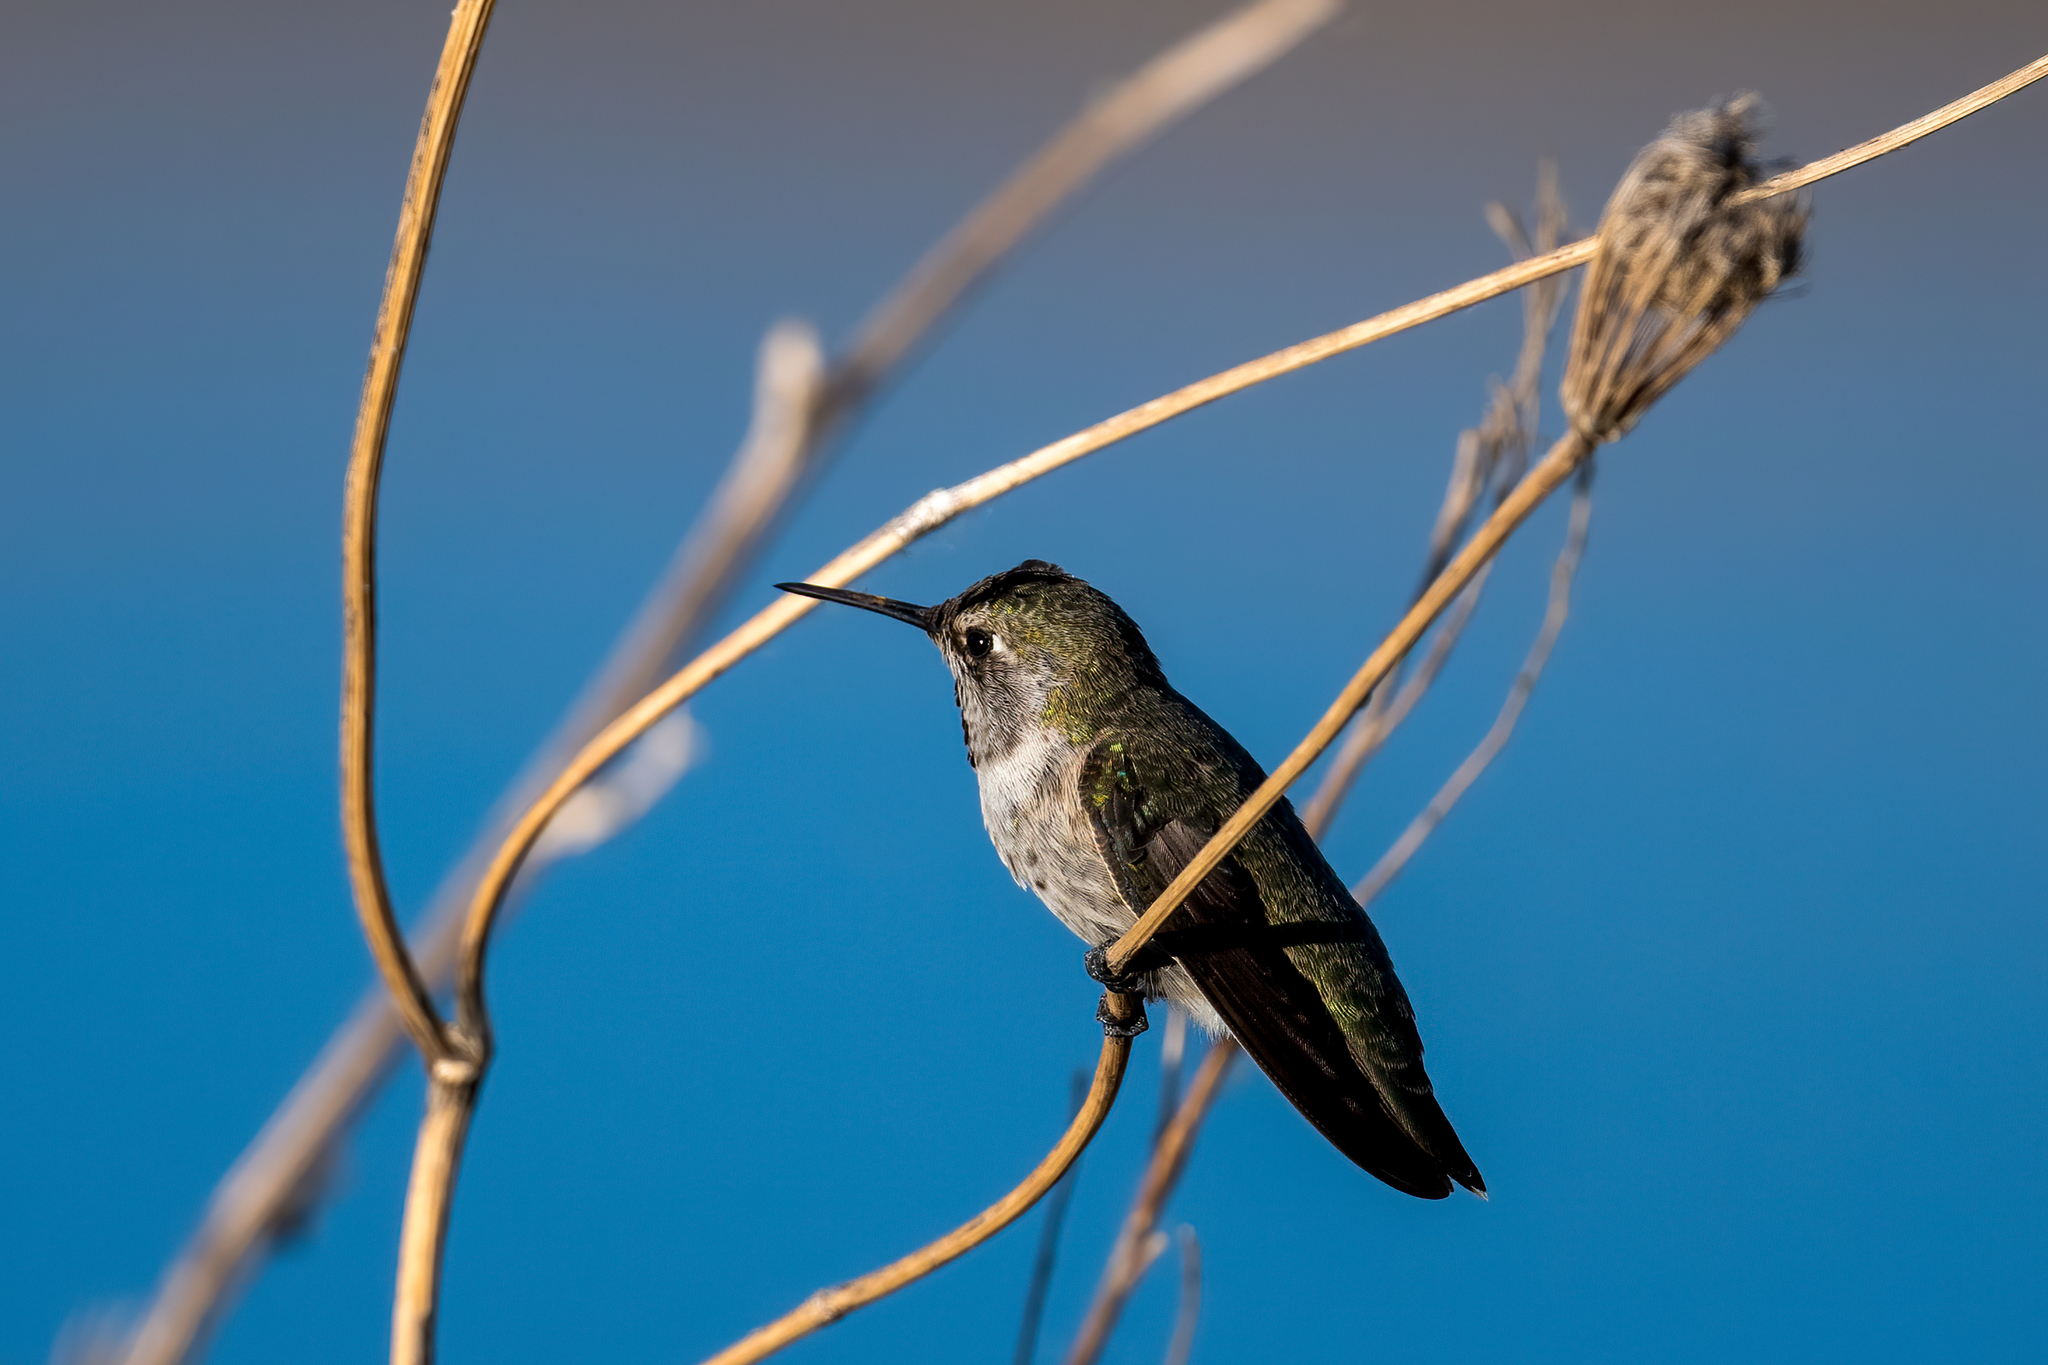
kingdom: Animalia
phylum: Chordata
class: Aves
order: Apodiformes
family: Trochilidae
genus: Calypte
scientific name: Calypte anna
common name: Anna's hummingbird
